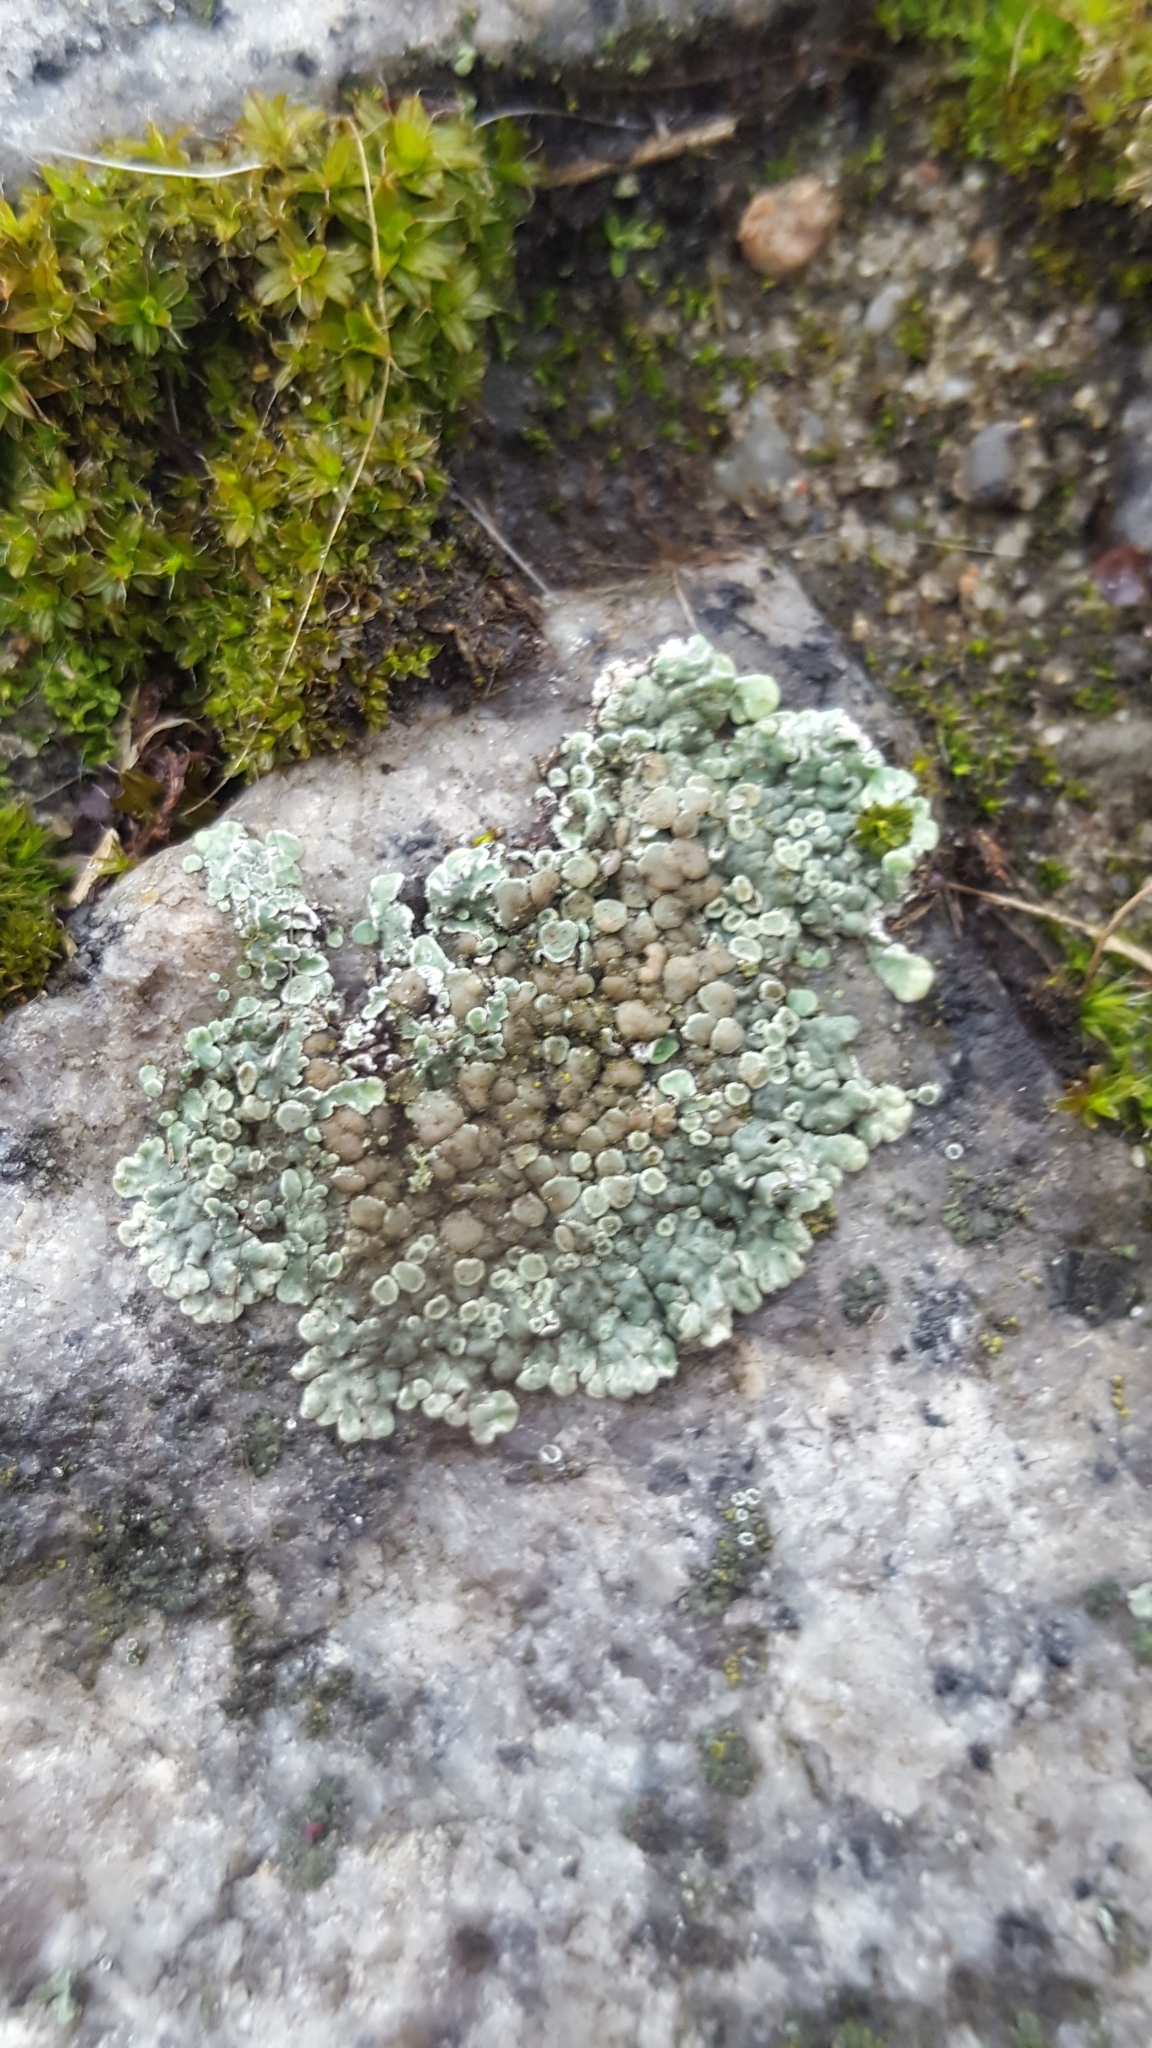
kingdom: Fungi
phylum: Ascomycota
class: Lecanoromycetes
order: Lecanorales
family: Lecanoraceae
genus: Protoparmeliopsis
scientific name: Protoparmeliopsis muralis
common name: Stonewall rim lichen
